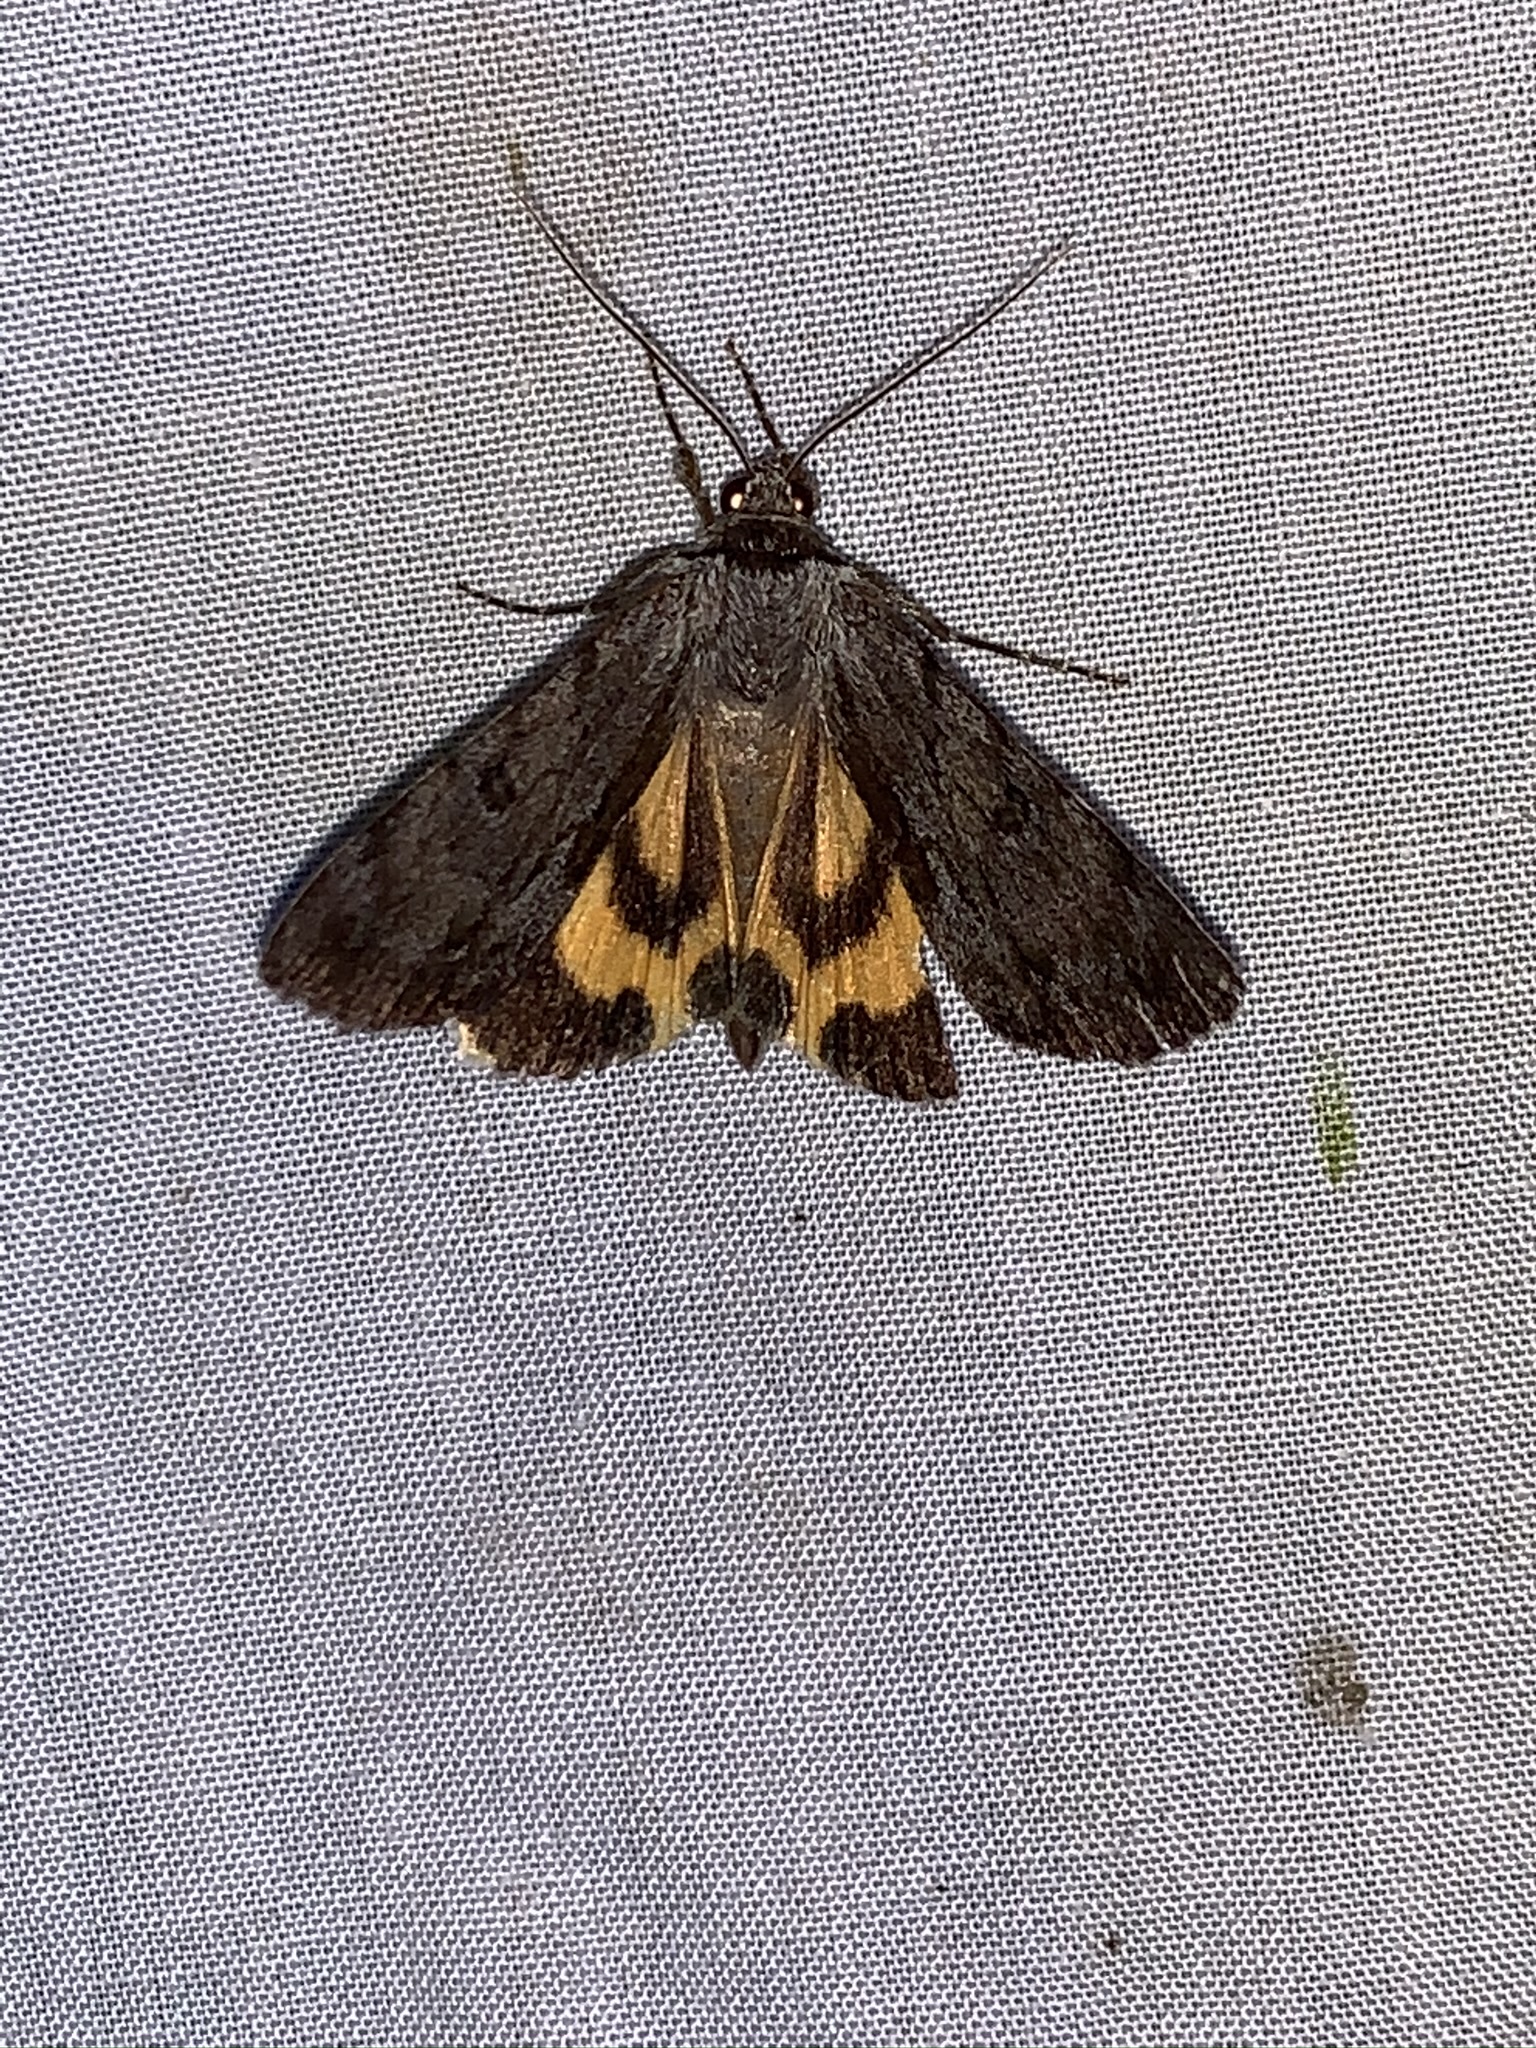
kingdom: Animalia
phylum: Arthropoda
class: Insecta
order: Lepidoptera
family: Erebidae
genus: Catocala
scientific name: Catocala sordida
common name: Sordid underwing
